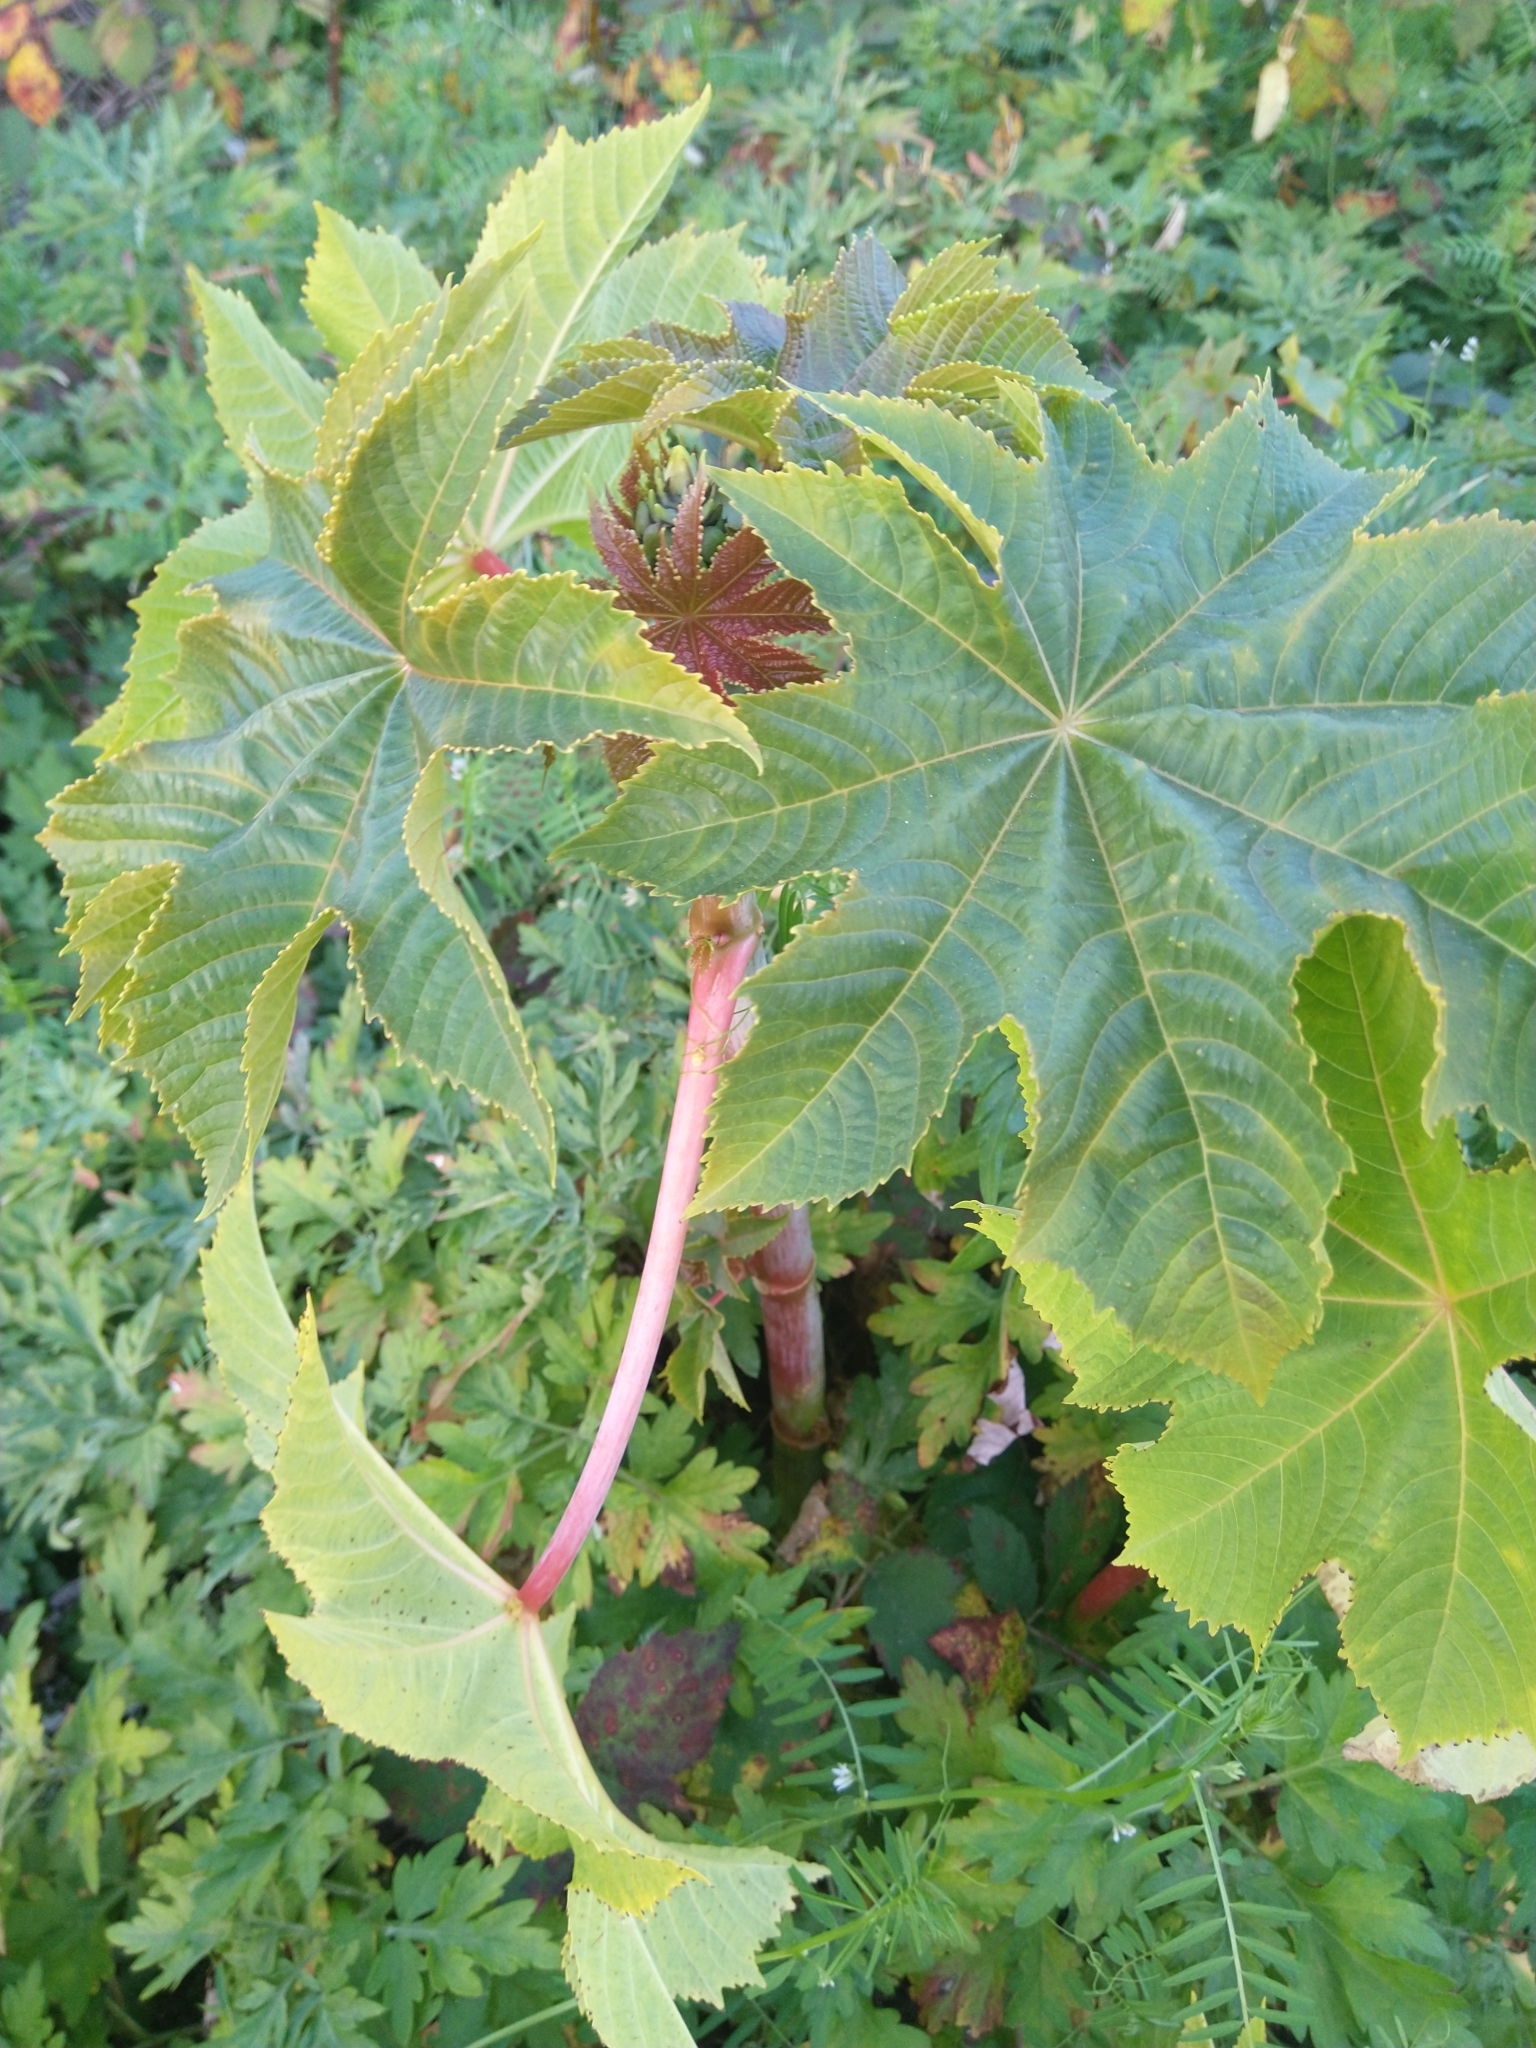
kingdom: Plantae
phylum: Tracheophyta
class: Magnoliopsida
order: Malpighiales
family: Euphorbiaceae
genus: Ricinus
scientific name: Ricinus communis
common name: Castor-oil-plant
